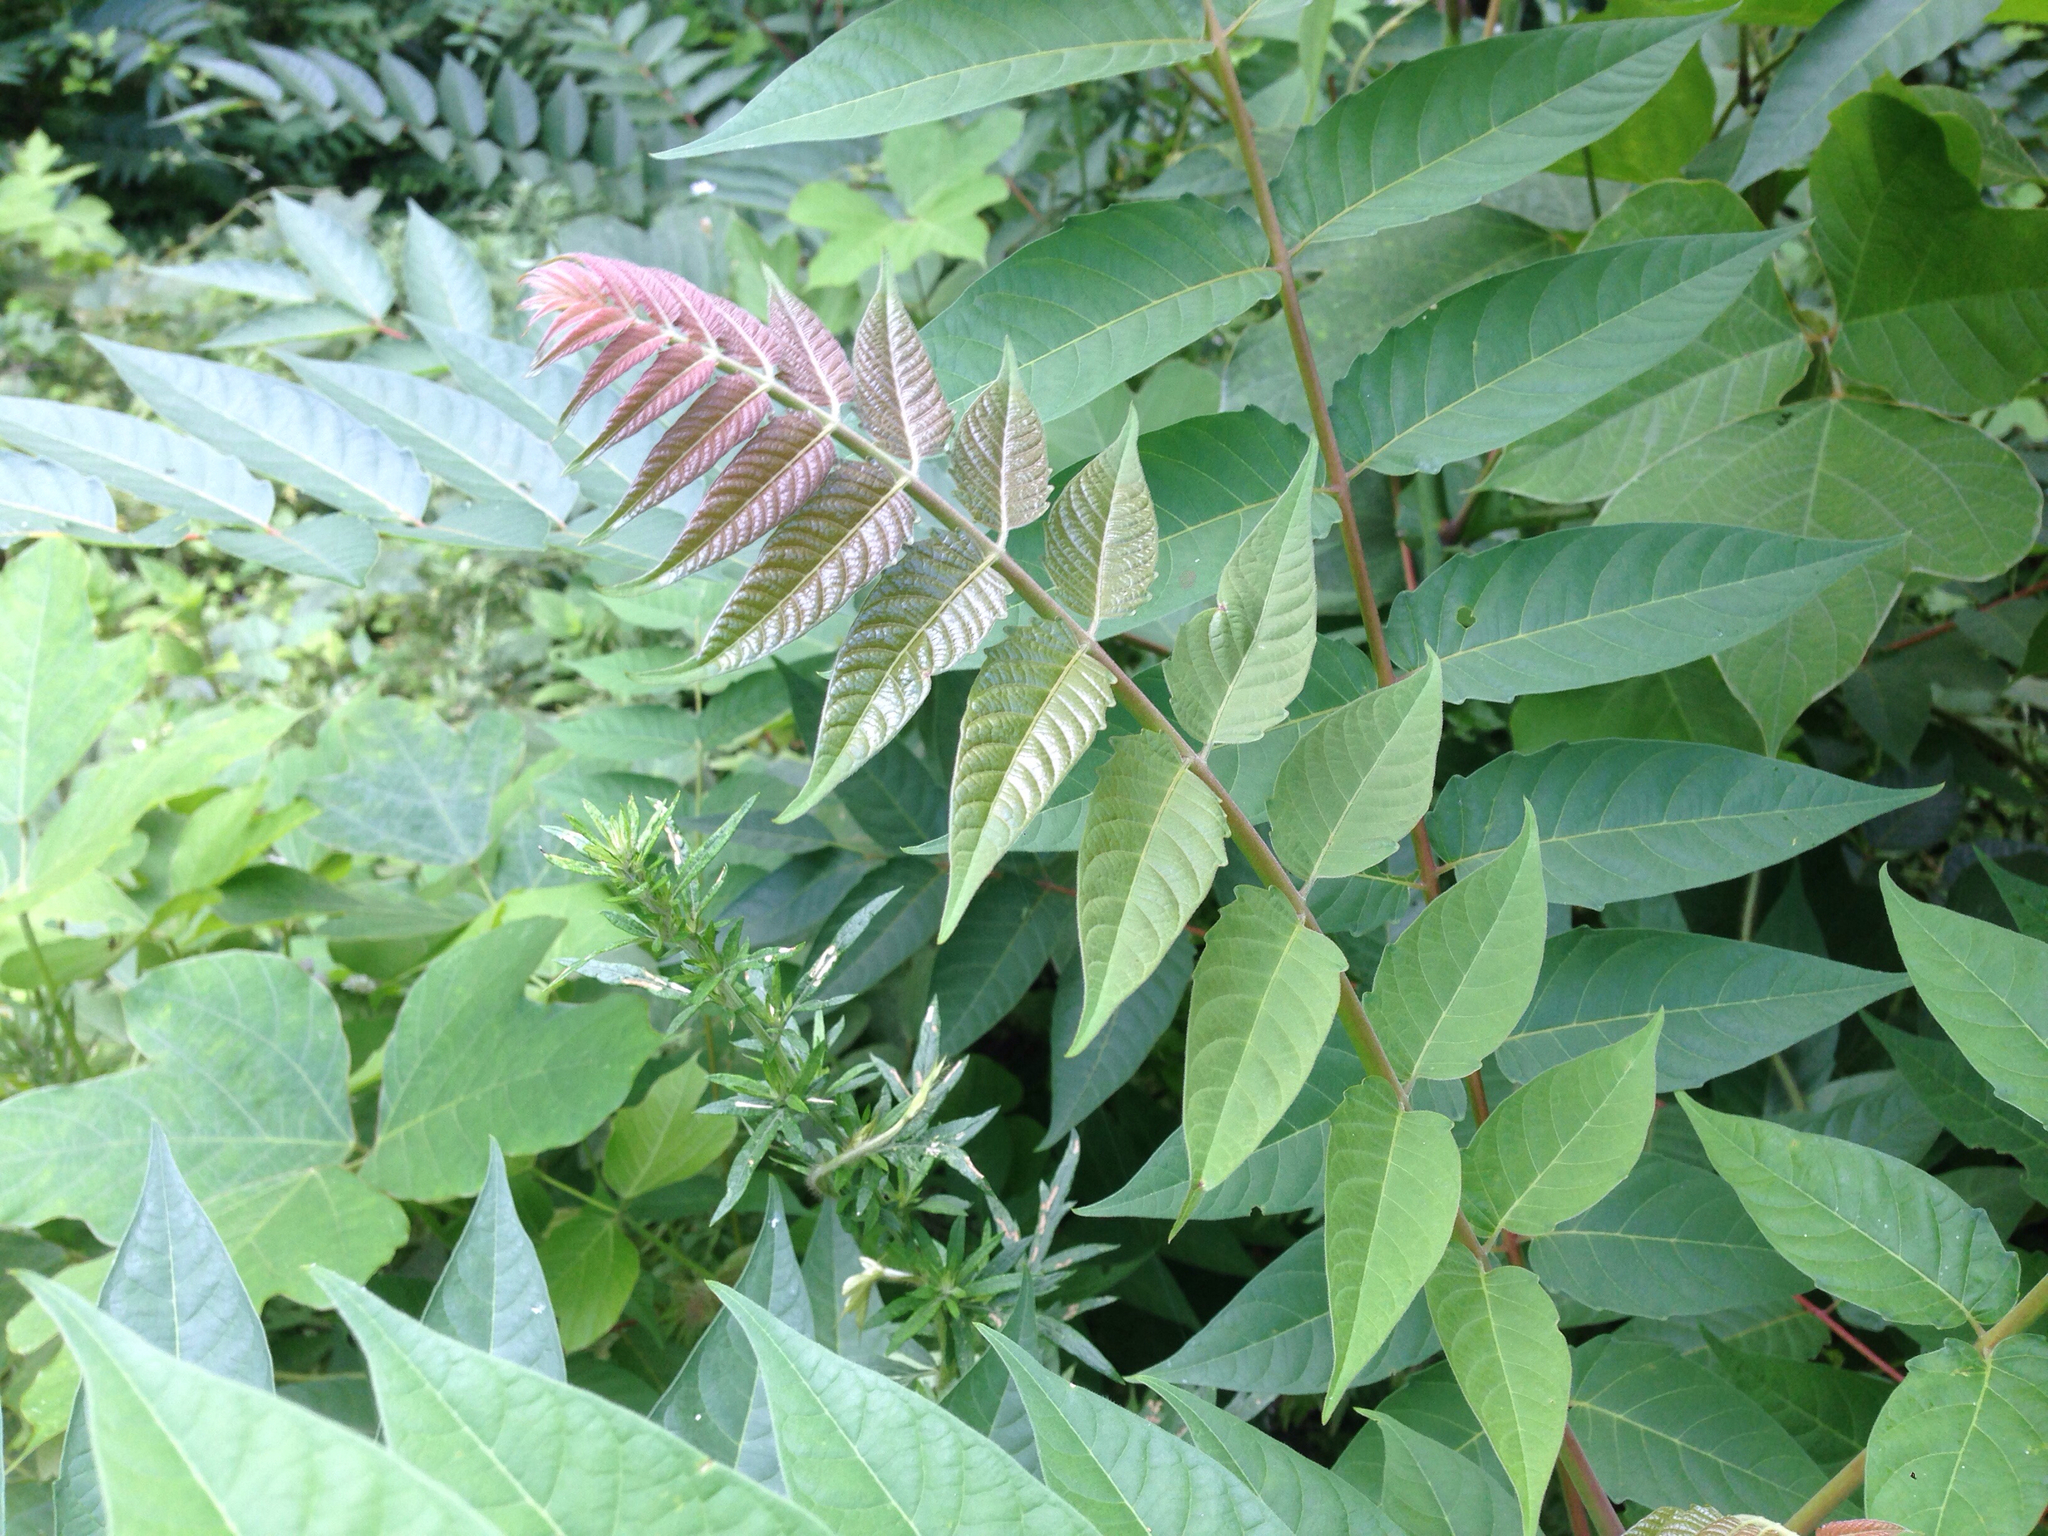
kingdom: Plantae
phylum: Tracheophyta
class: Magnoliopsida
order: Sapindales
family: Simaroubaceae
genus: Ailanthus
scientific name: Ailanthus altissima
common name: Tree-of-heaven
